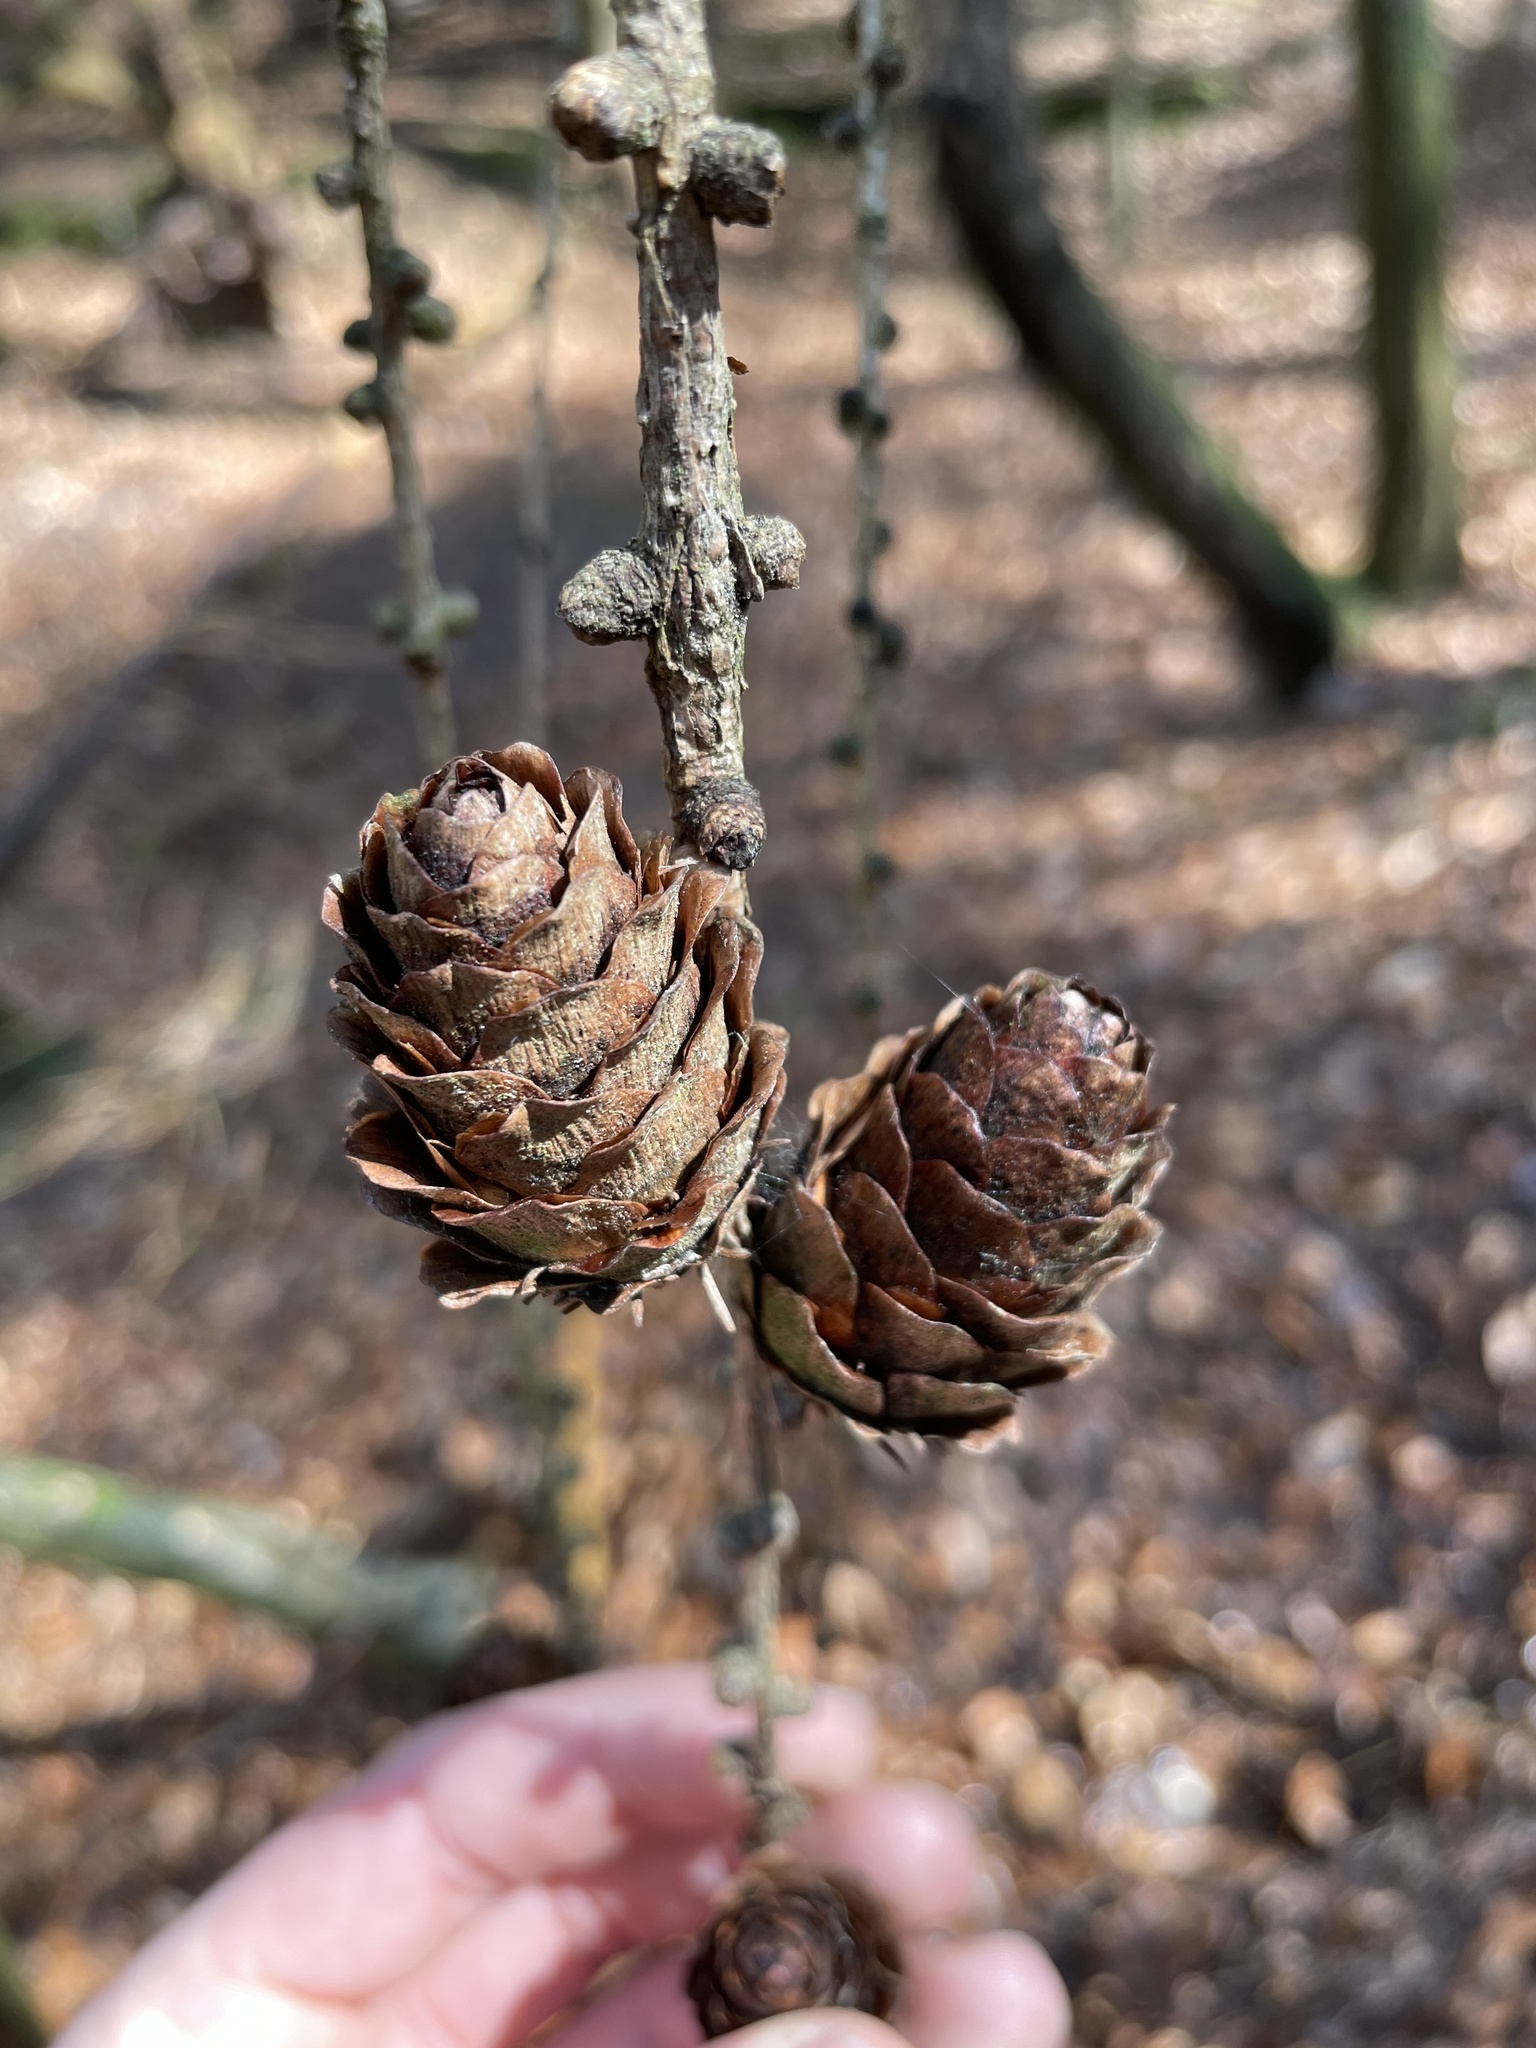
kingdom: Plantae
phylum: Tracheophyta
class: Pinopsida
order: Pinales
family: Pinaceae
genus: Larix
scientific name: Larix decidua
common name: European larch
